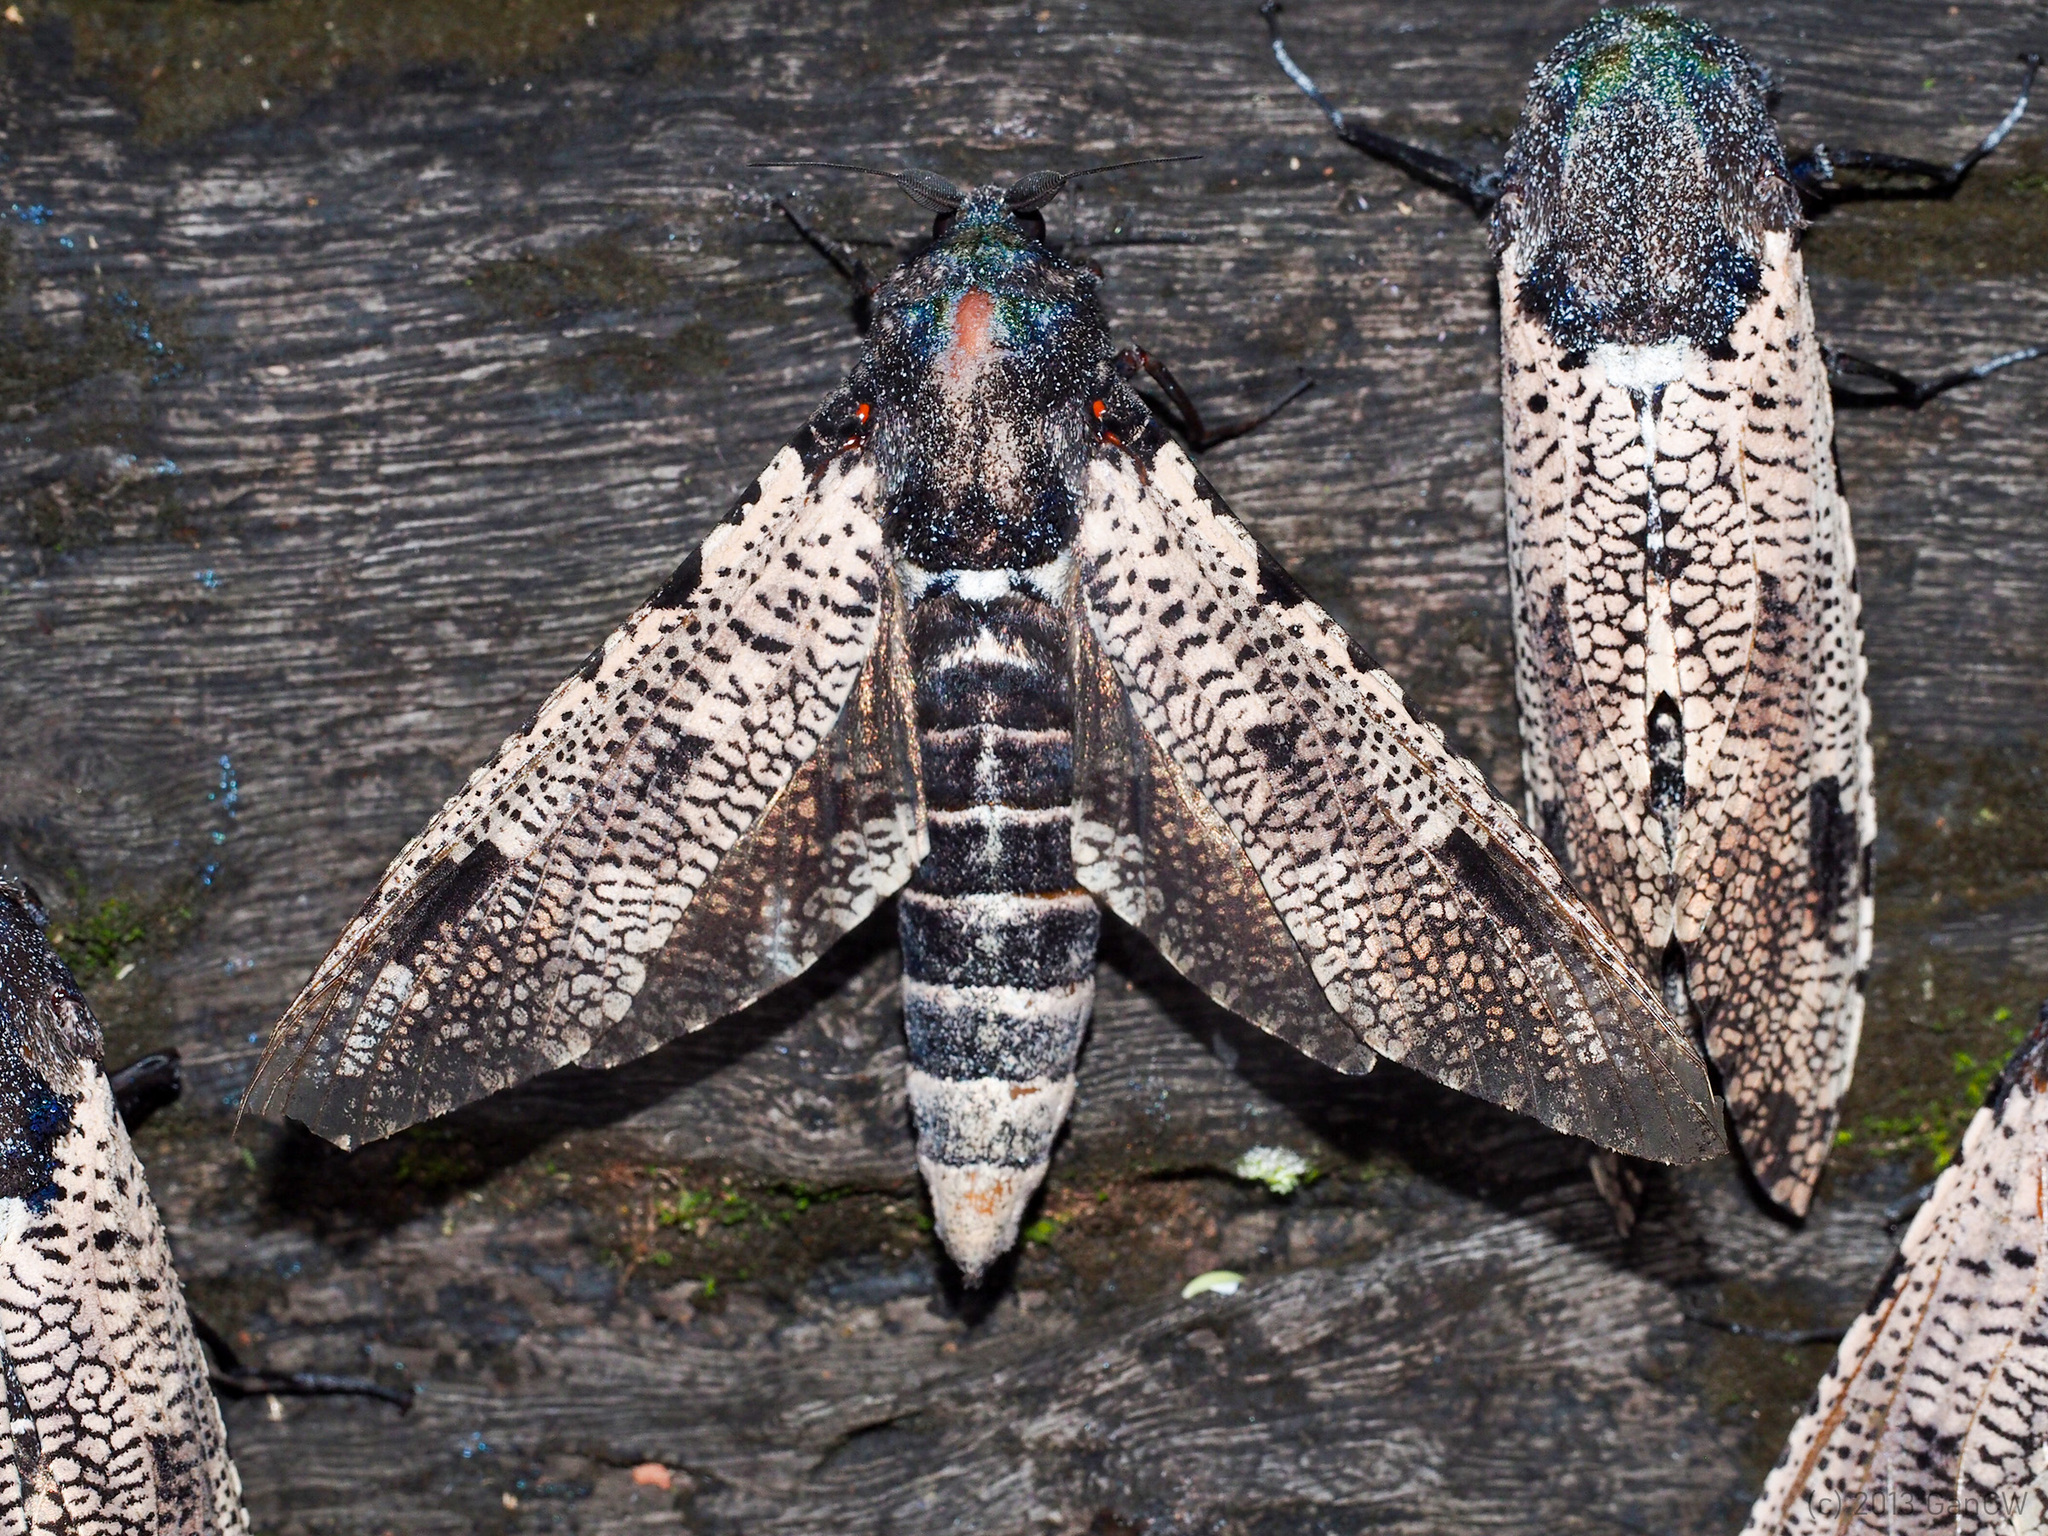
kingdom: Animalia
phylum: Arthropoda
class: Insecta
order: Lepidoptera
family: Cossidae
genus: Xyleutes
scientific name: Xyleutes strix
